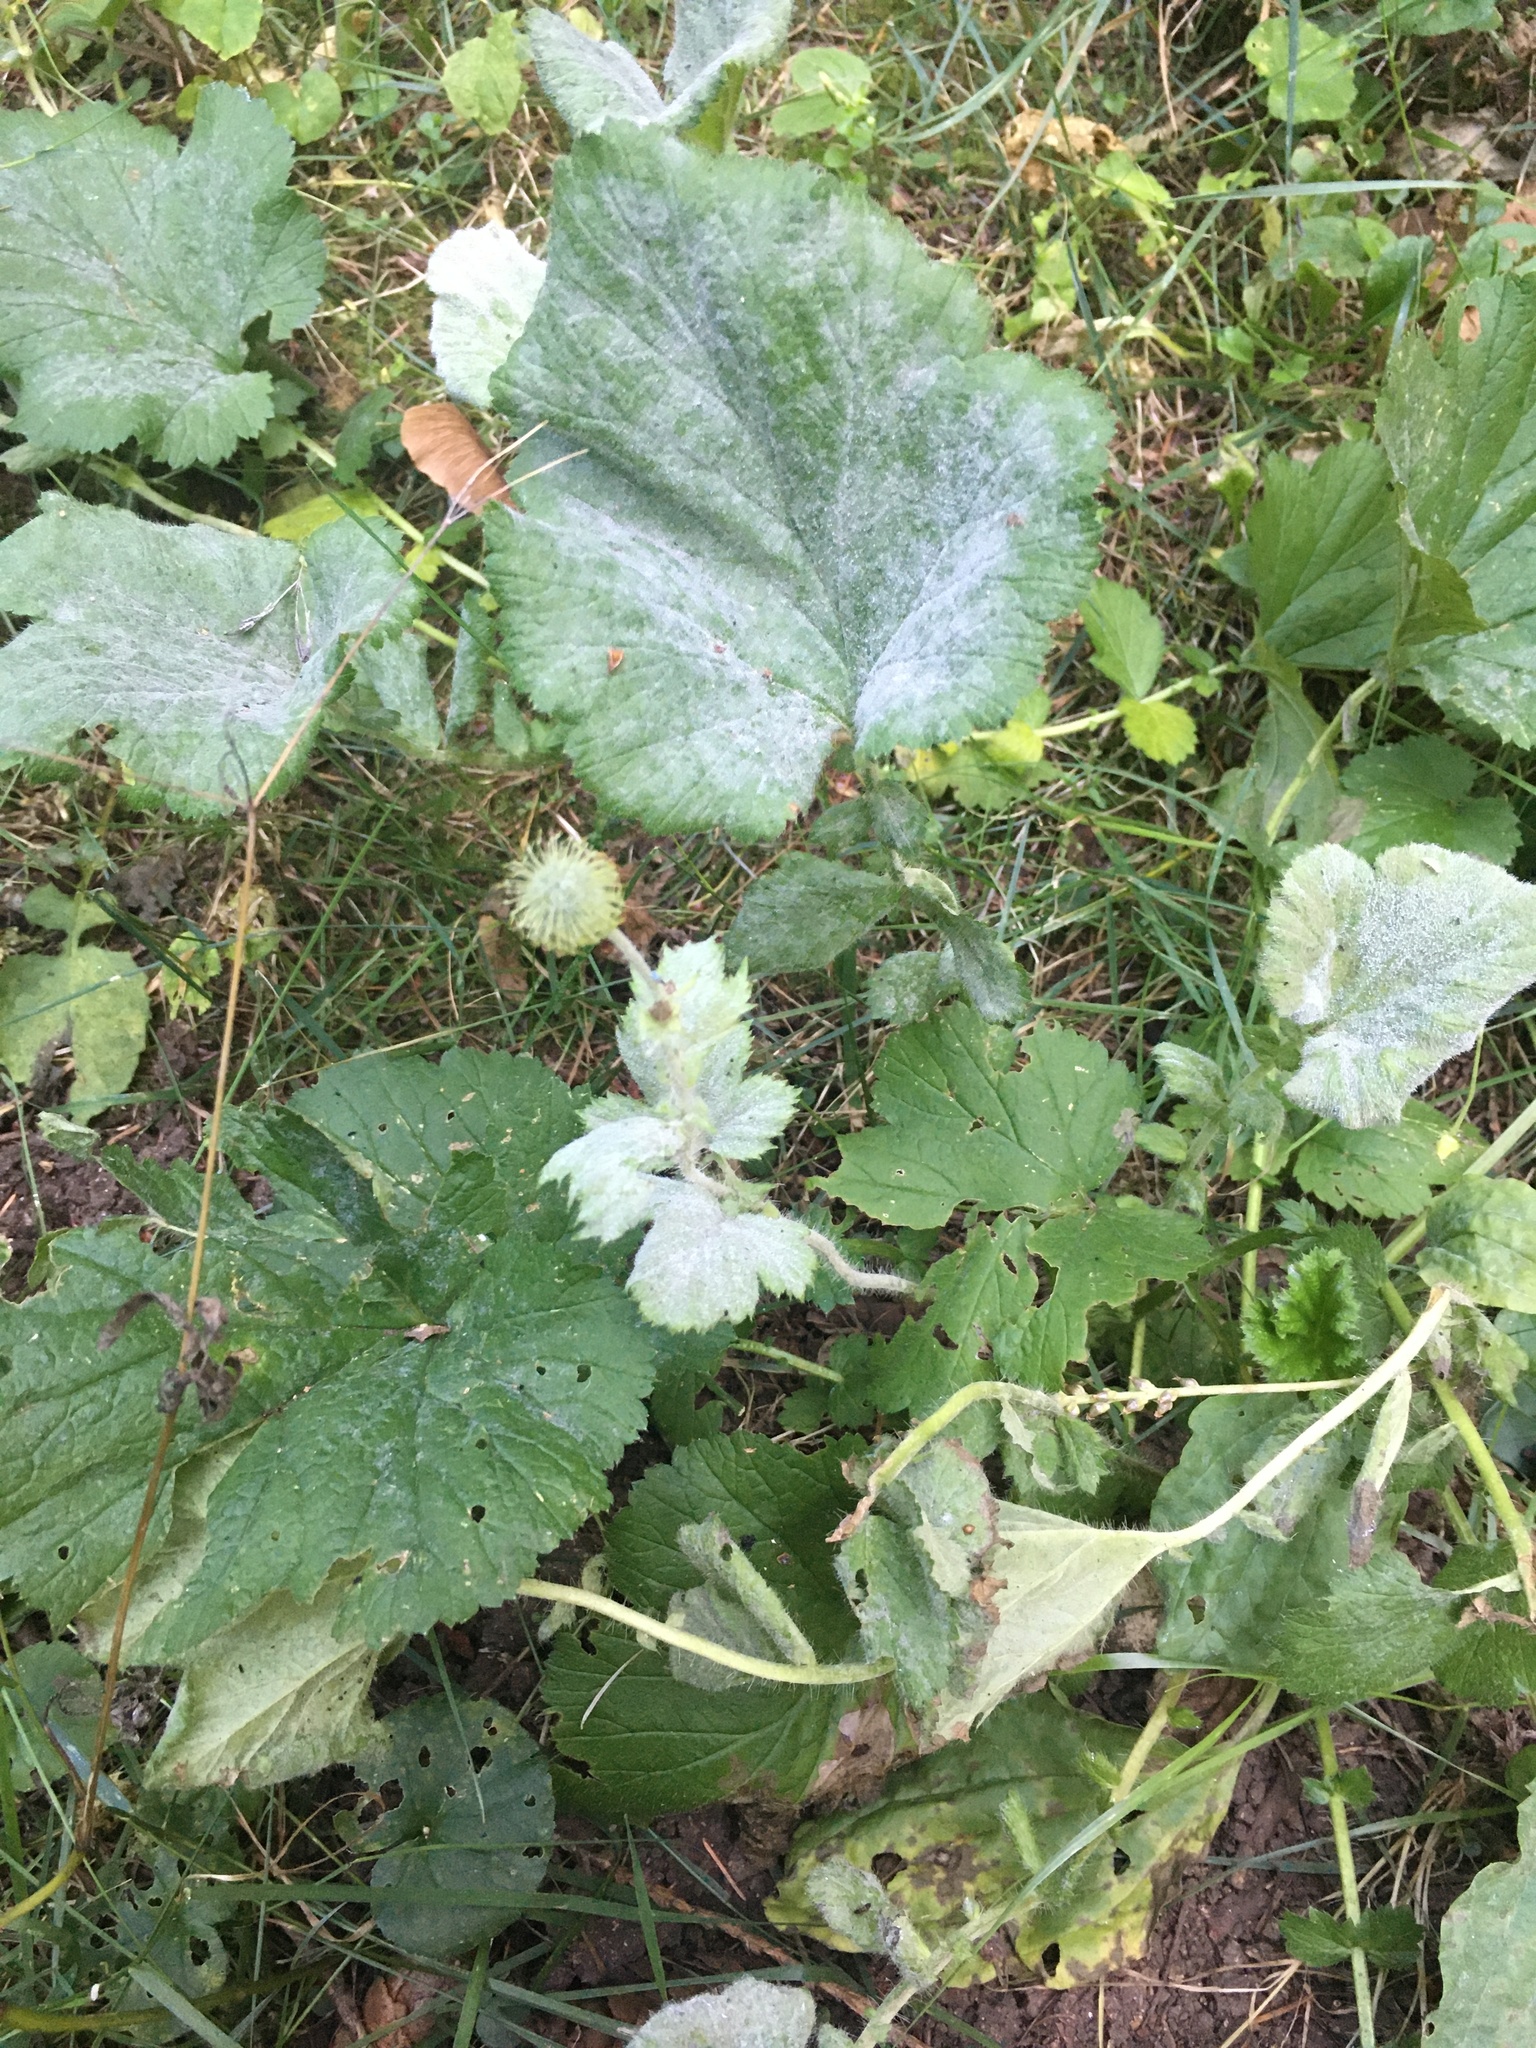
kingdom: Plantae
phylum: Tracheophyta
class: Magnoliopsida
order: Rosales
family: Rosaceae
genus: Geum
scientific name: Geum macrophyllum
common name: Large-leaved avens
